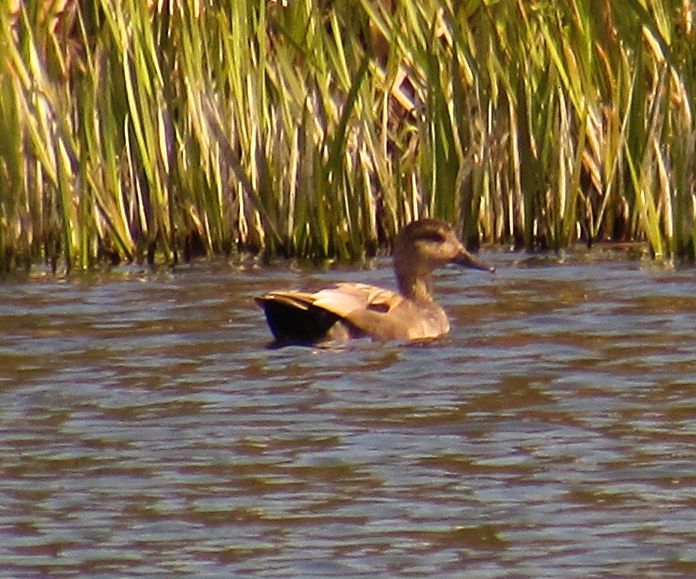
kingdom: Animalia
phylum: Chordata
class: Aves
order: Anseriformes
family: Anatidae
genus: Mareca
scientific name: Mareca strepera
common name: Gadwall
